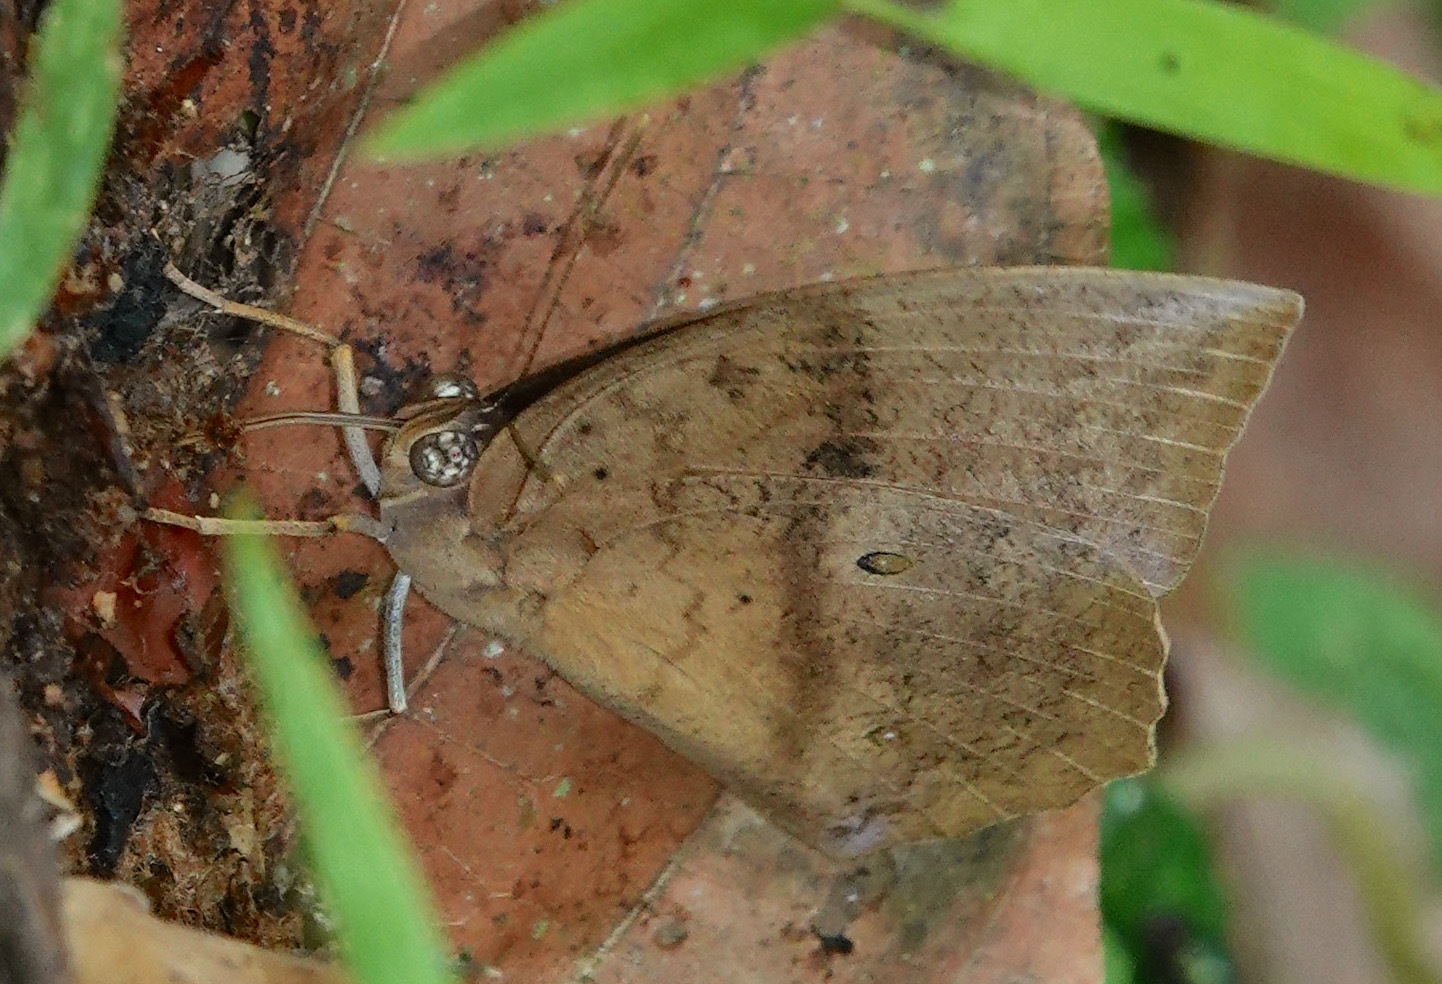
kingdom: Animalia
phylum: Arthropoda
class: Insecta
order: Lepidoptera
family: Nymphalidae
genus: Discophora
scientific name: Discophora sondaica
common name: Common duffer
